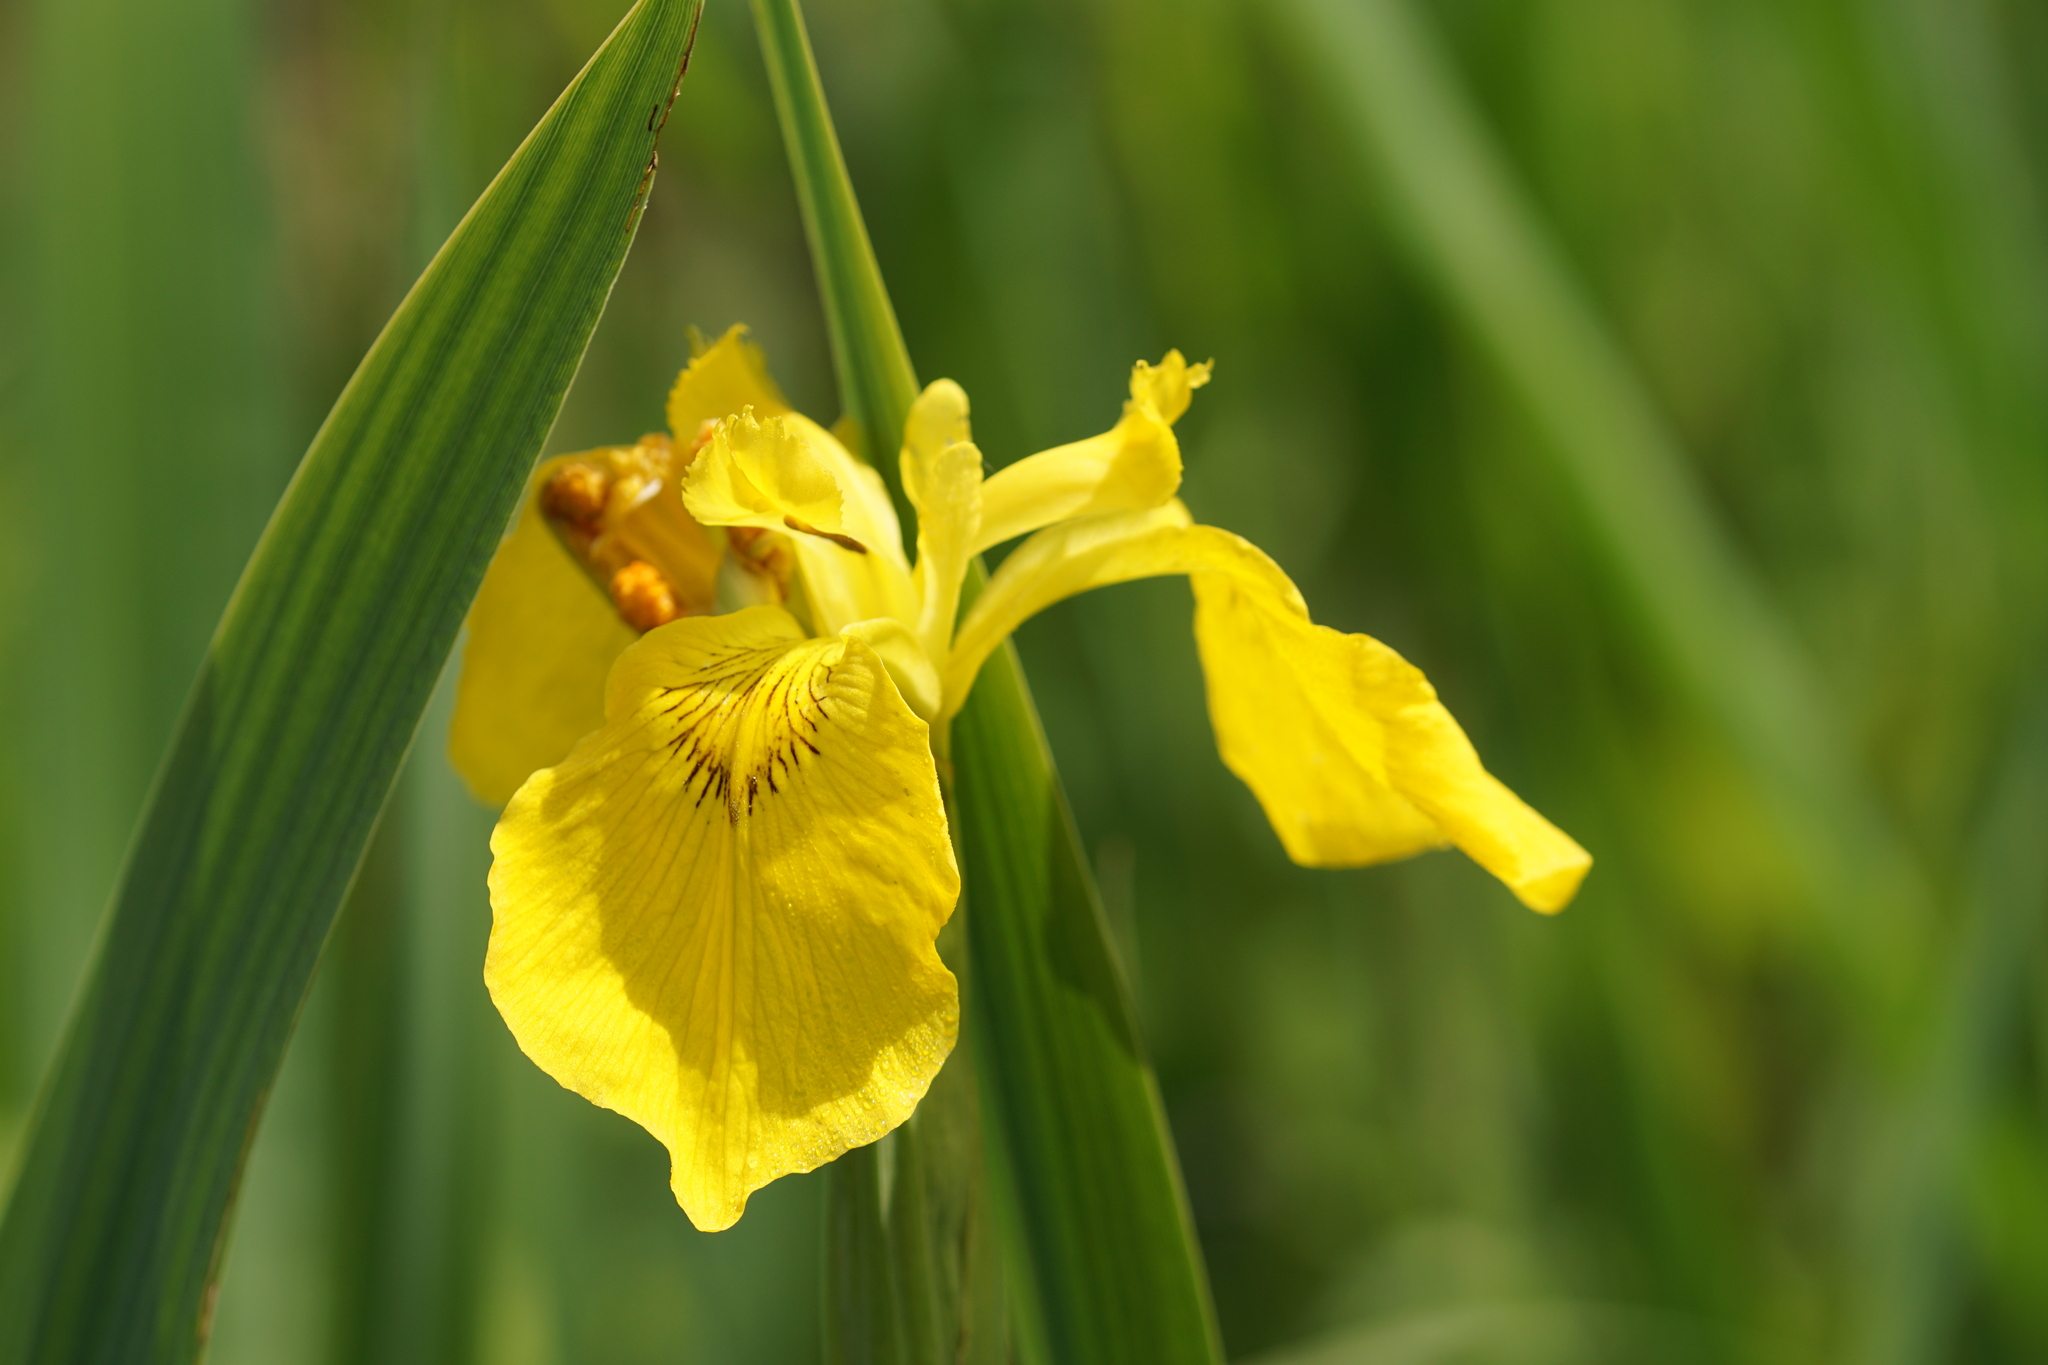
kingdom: Plantae
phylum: Tracheophyta
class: Liliopsida
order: Asparagales
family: Iridaceae
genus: Iris
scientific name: Iris pseudacorus
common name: Yellow flag
